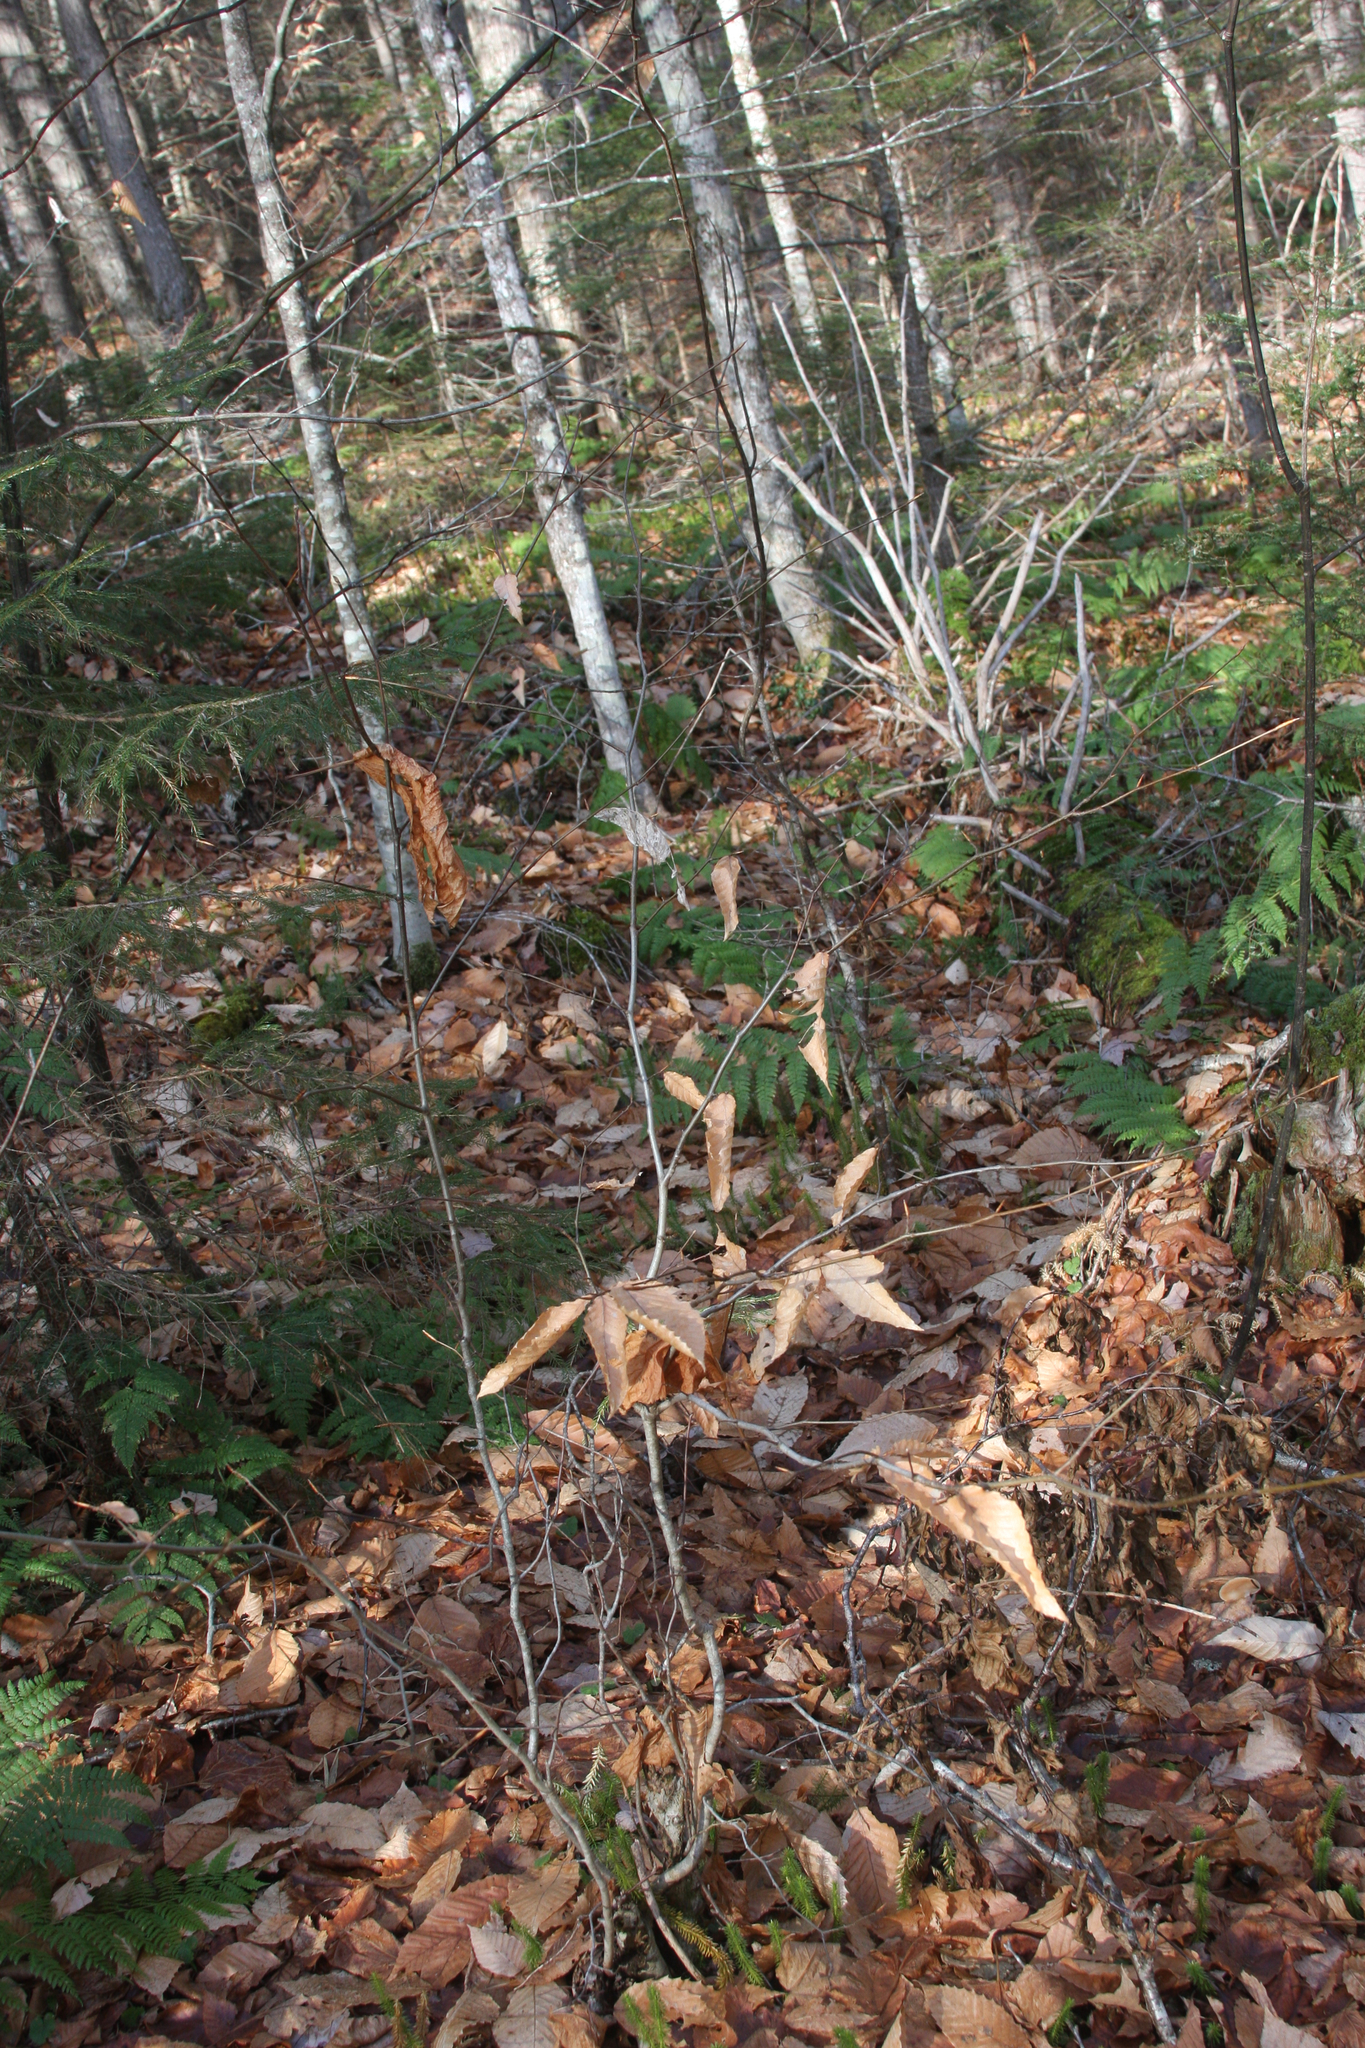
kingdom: Plantae
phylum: Tracheophyta
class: Magnoliopsida
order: Fagales
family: Fagaceae
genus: Fagus
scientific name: Fagus grandifolia
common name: American beech
